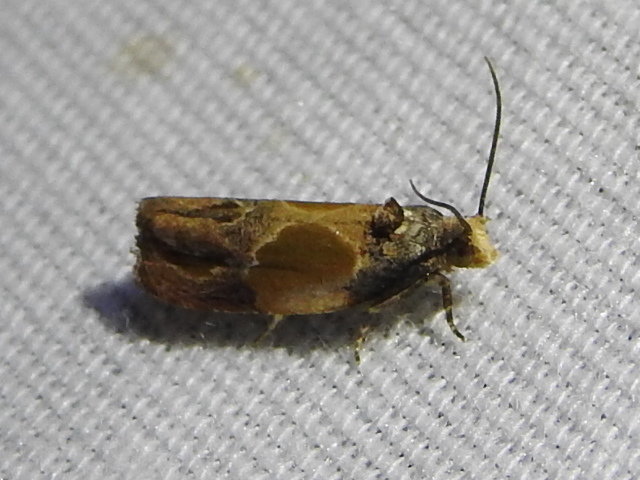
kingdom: Animalia
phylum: Arthropoda
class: Insecta
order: Lepidoptera
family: Tortricidae
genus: Eumarozia
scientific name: Eumarozia malachitana
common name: Sculptured moth
